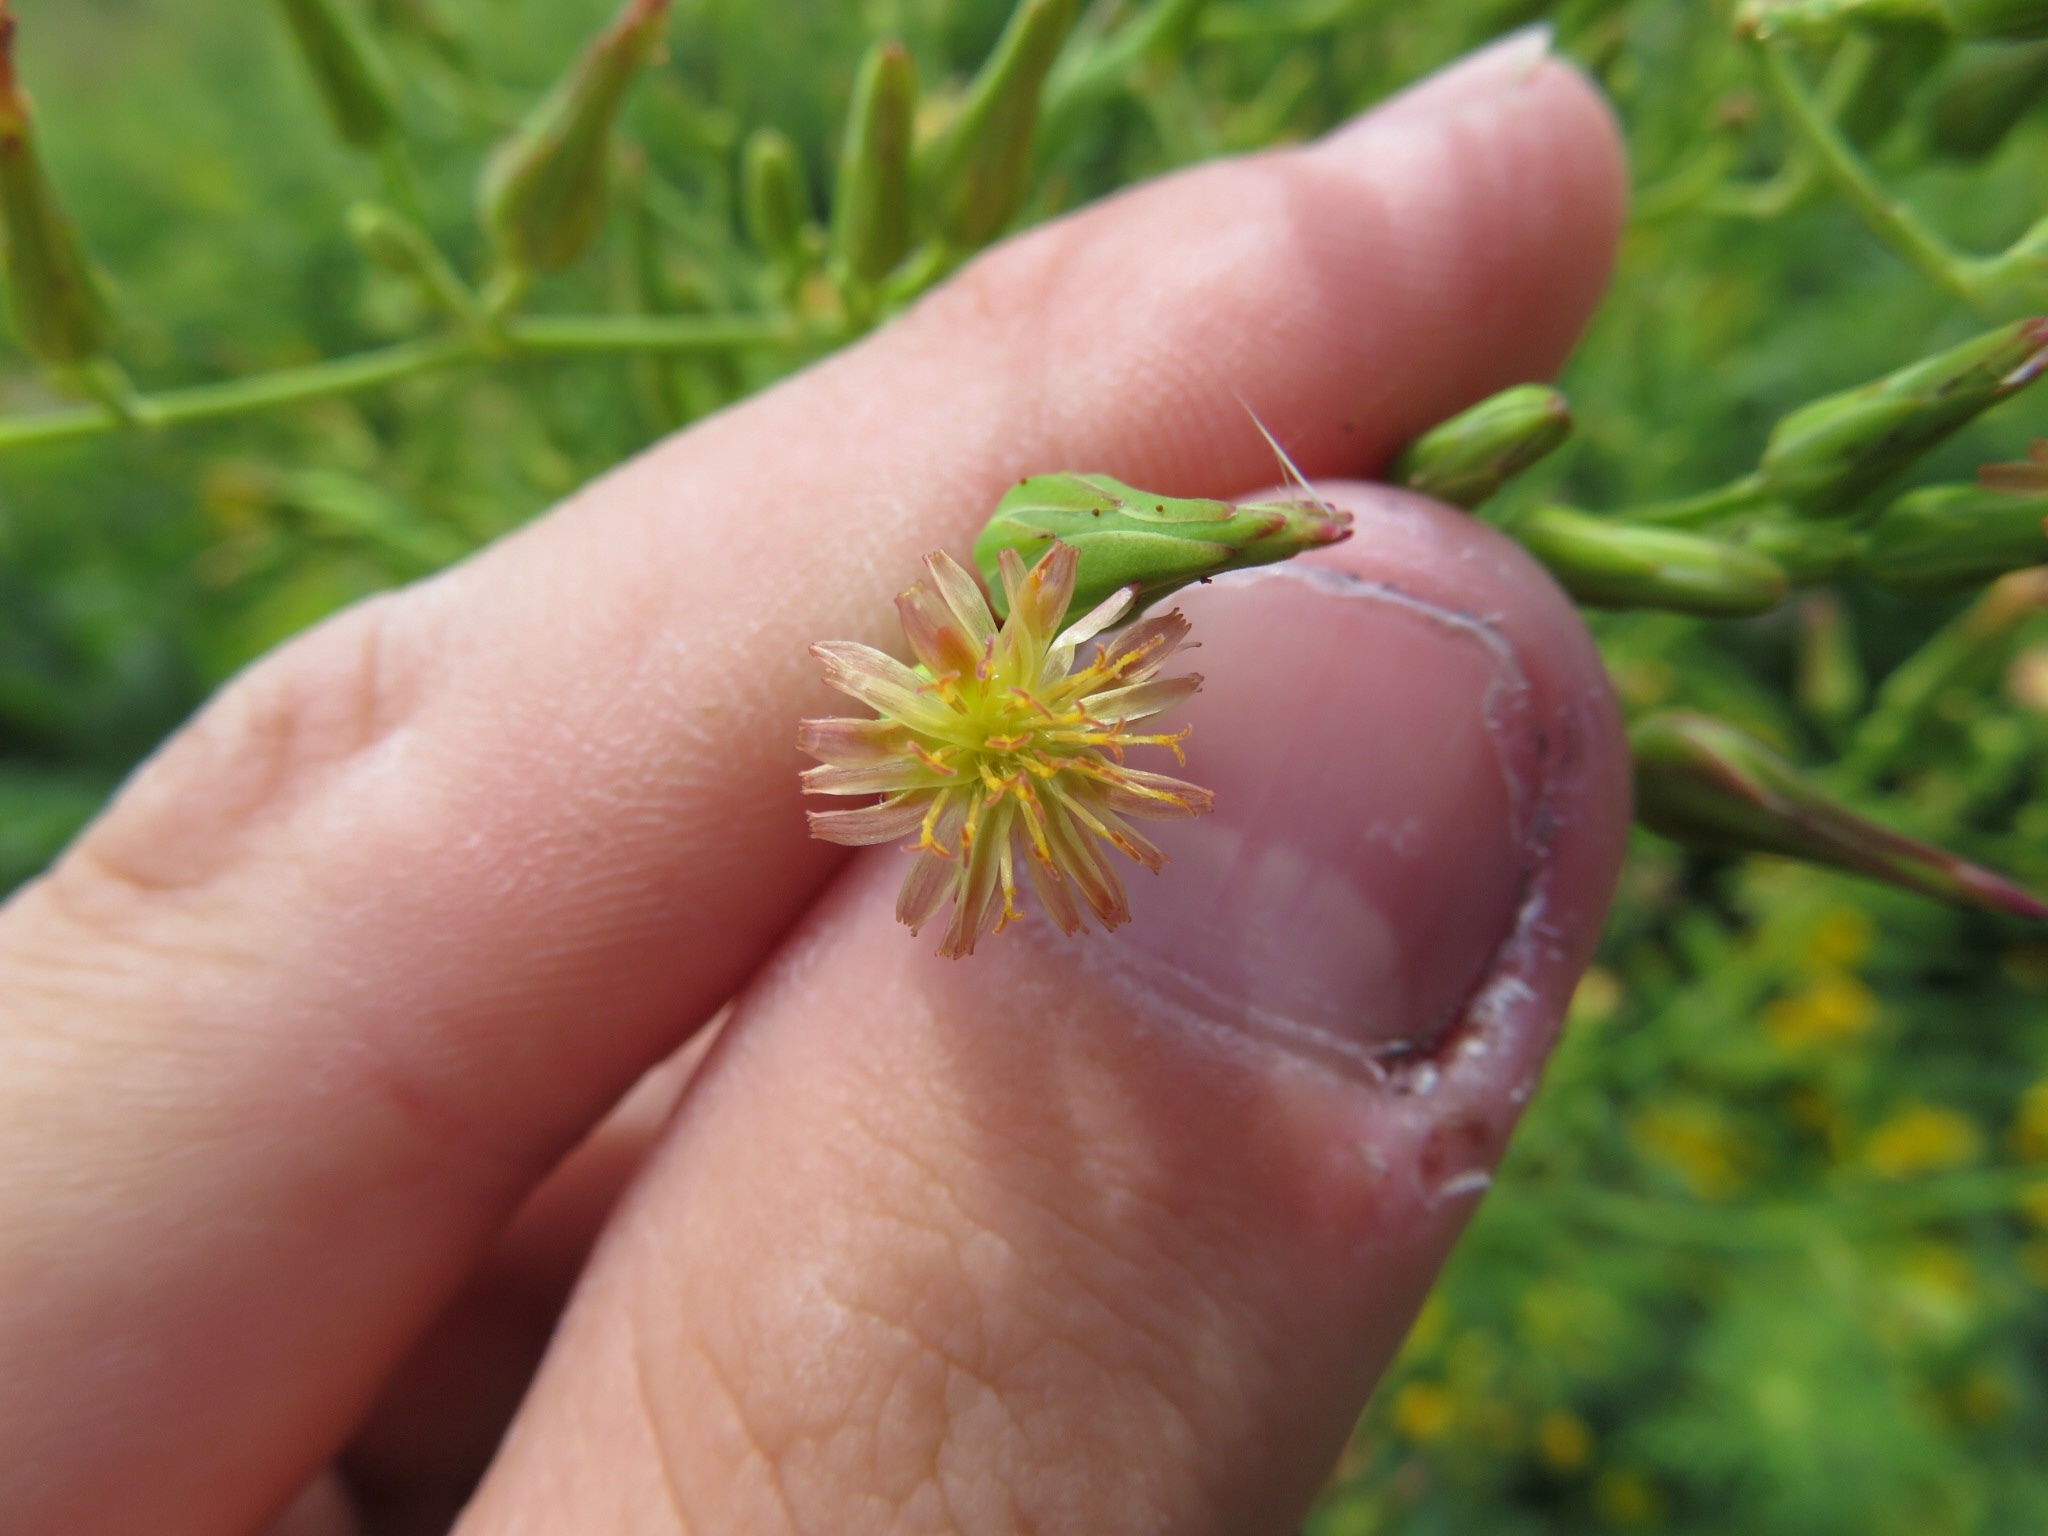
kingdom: Plantae
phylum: Tracheophyta
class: Magnoliopsida
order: Asterales
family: Asteraceae
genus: Lactuca
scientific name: Lactuca canadensis
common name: Canada lettuce
